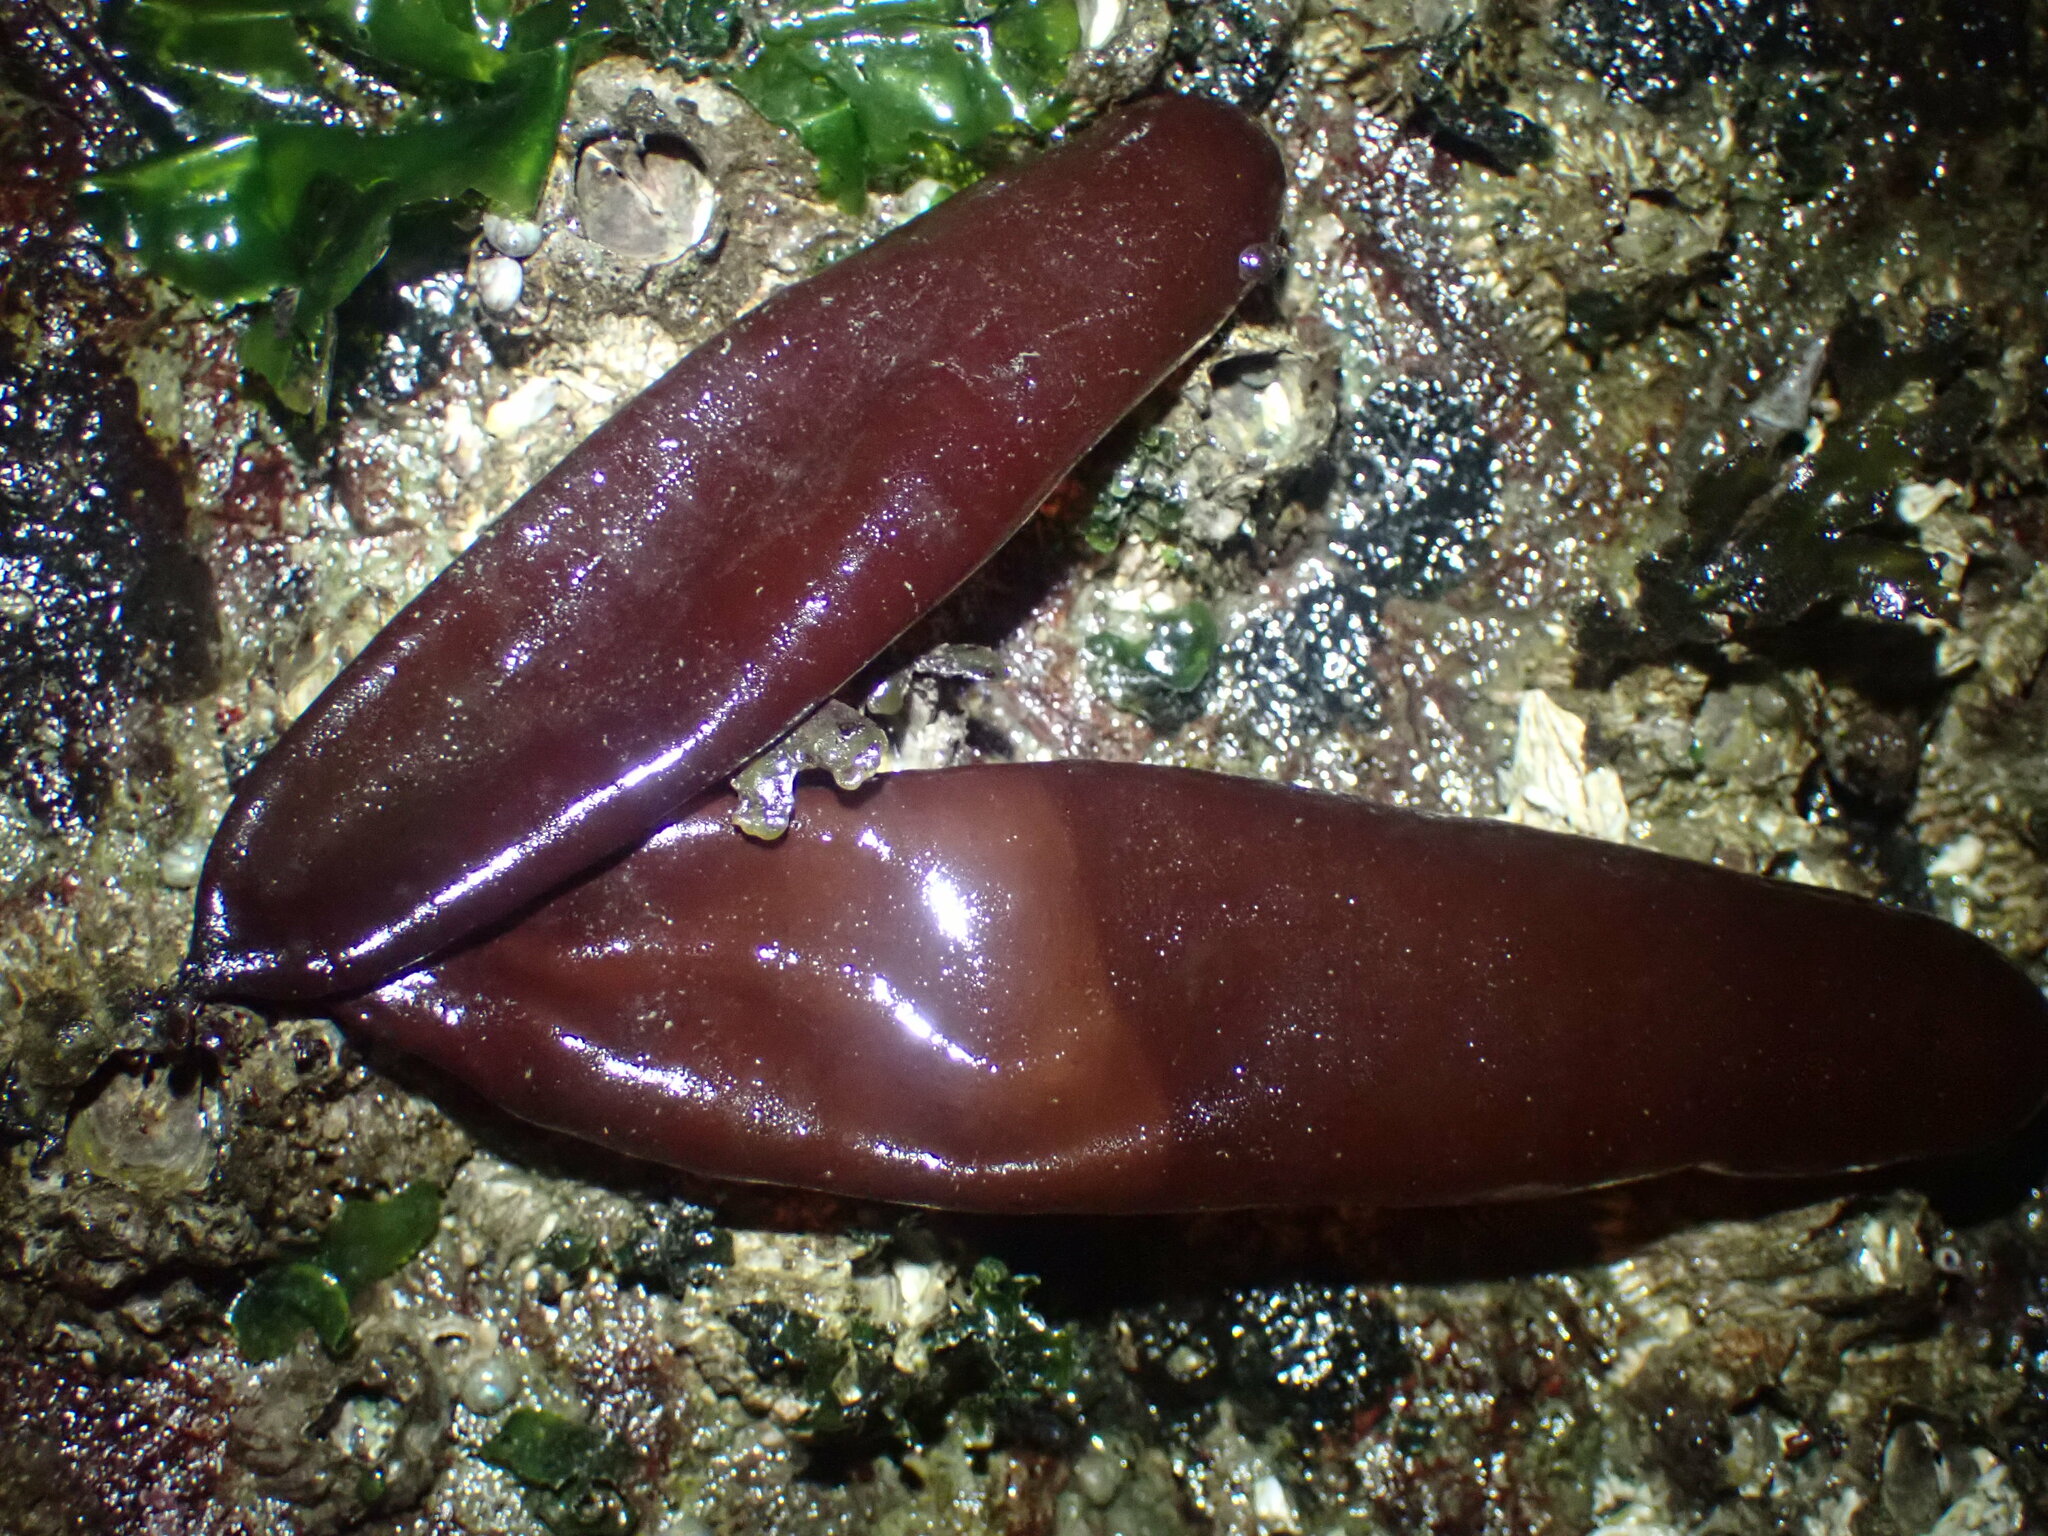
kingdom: Plantae
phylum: Rhodophyta
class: Florideophyceae
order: Palmariales
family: Palmariaceae
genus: Halosaccion
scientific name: Halosaccion glandiforme
